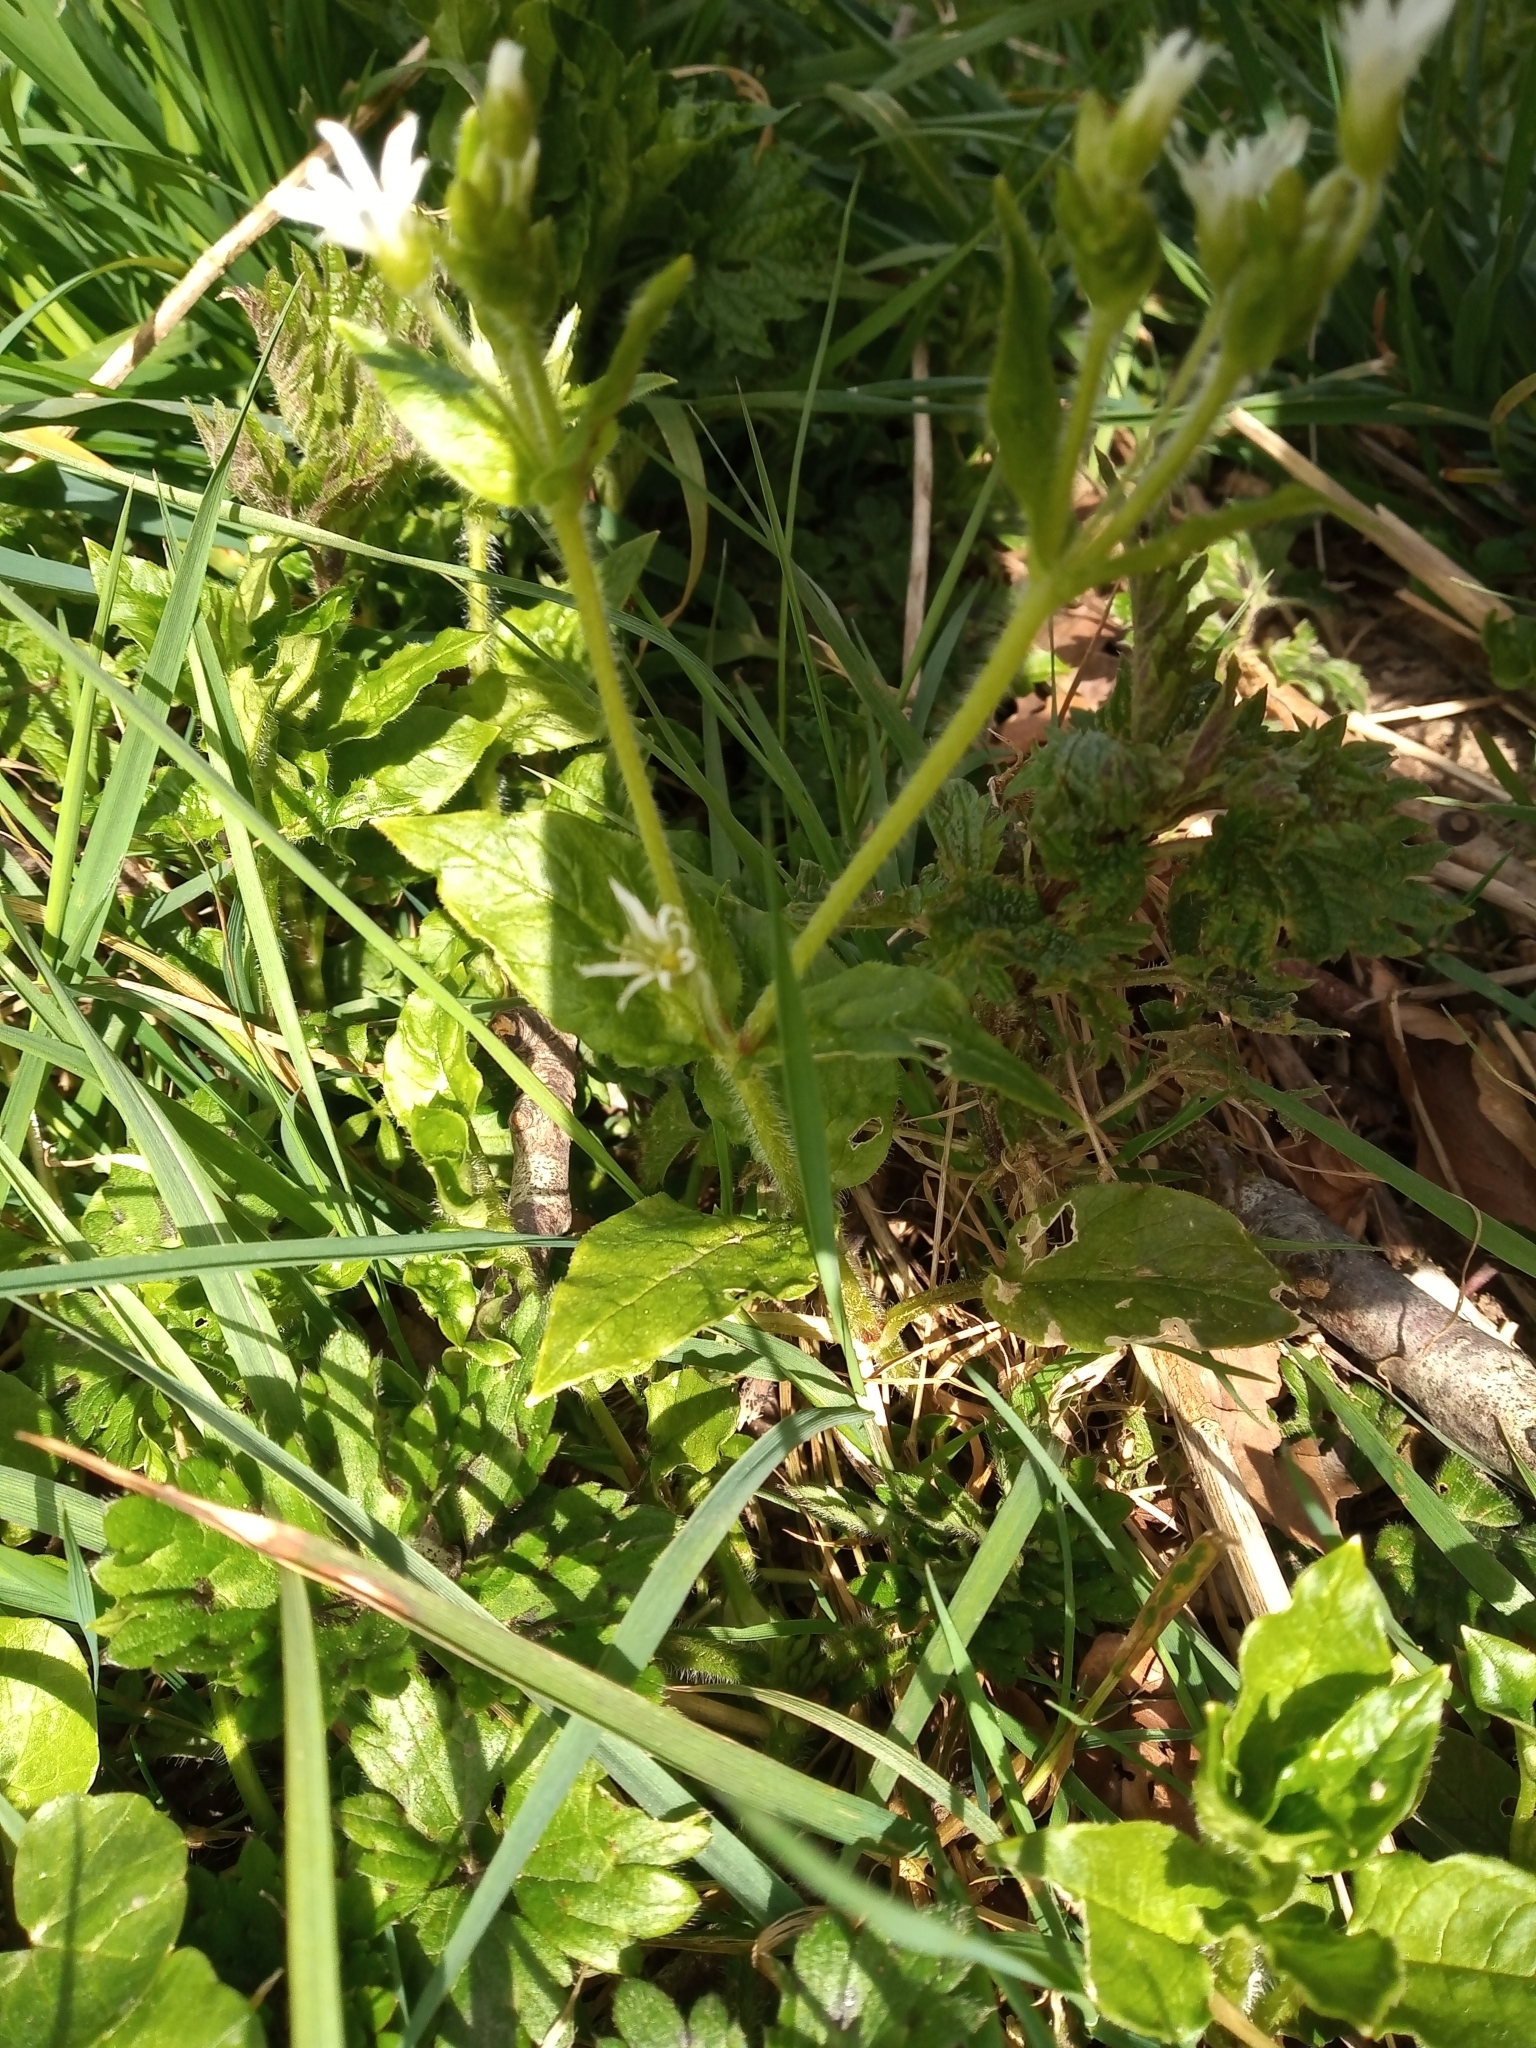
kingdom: Plantae
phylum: Tracheophyta
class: Magnoliopsida
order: Caryophyllales
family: Caryophyllaceae
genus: Stellaria
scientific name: Stellaria nemorum
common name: Wood stitchwort
